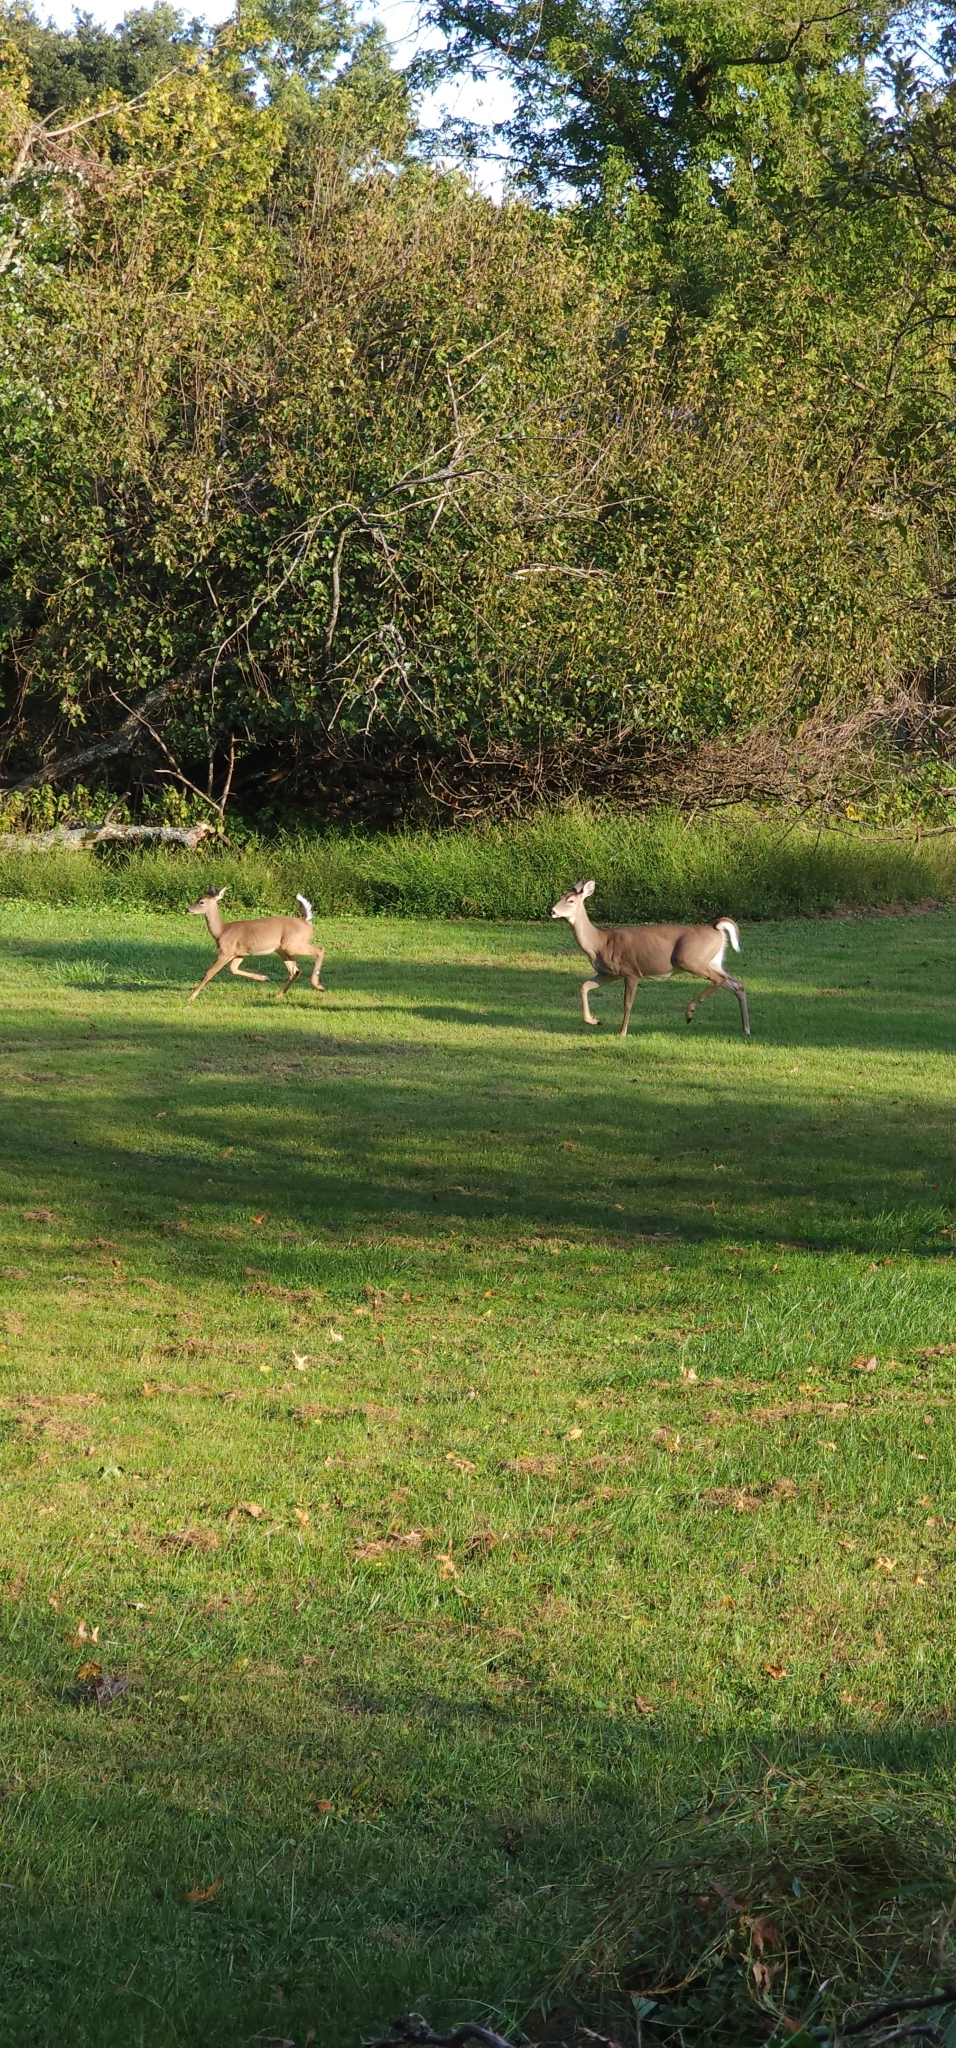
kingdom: Animalia
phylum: Chordata
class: Mammalia
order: Artiodactyla
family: Cervidae
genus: Odocoileus
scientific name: Odocoileus virginianus
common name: White-tailed deer
